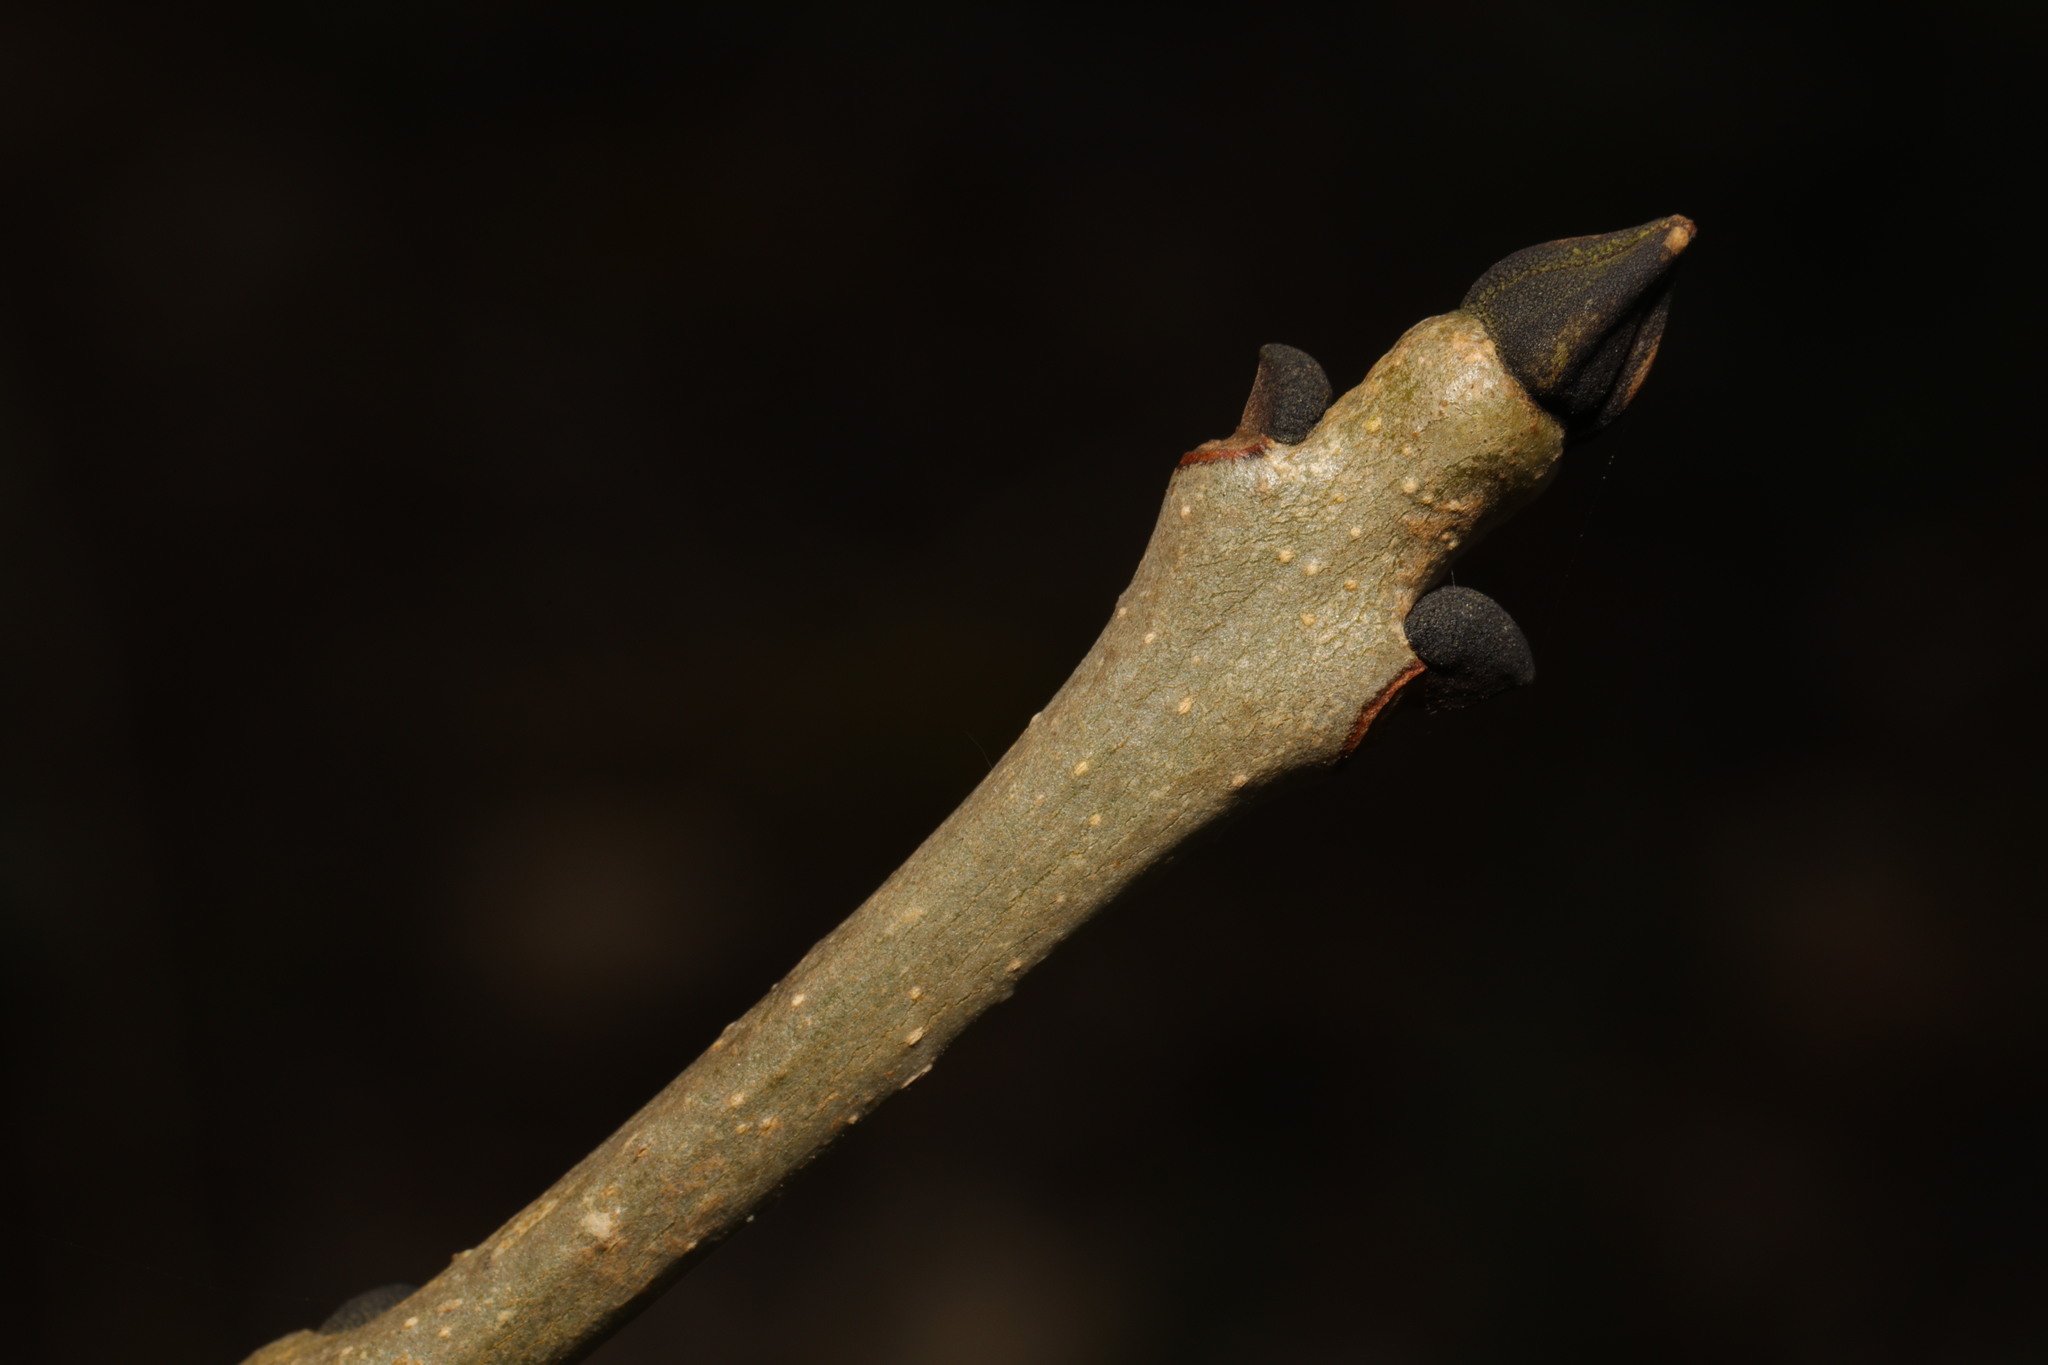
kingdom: Plantae
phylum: Tracheophyta
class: Magnoliopsida
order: Lamiales
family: Oleaceae
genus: Fraxinus
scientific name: Fraxinus excelsior
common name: European ash
